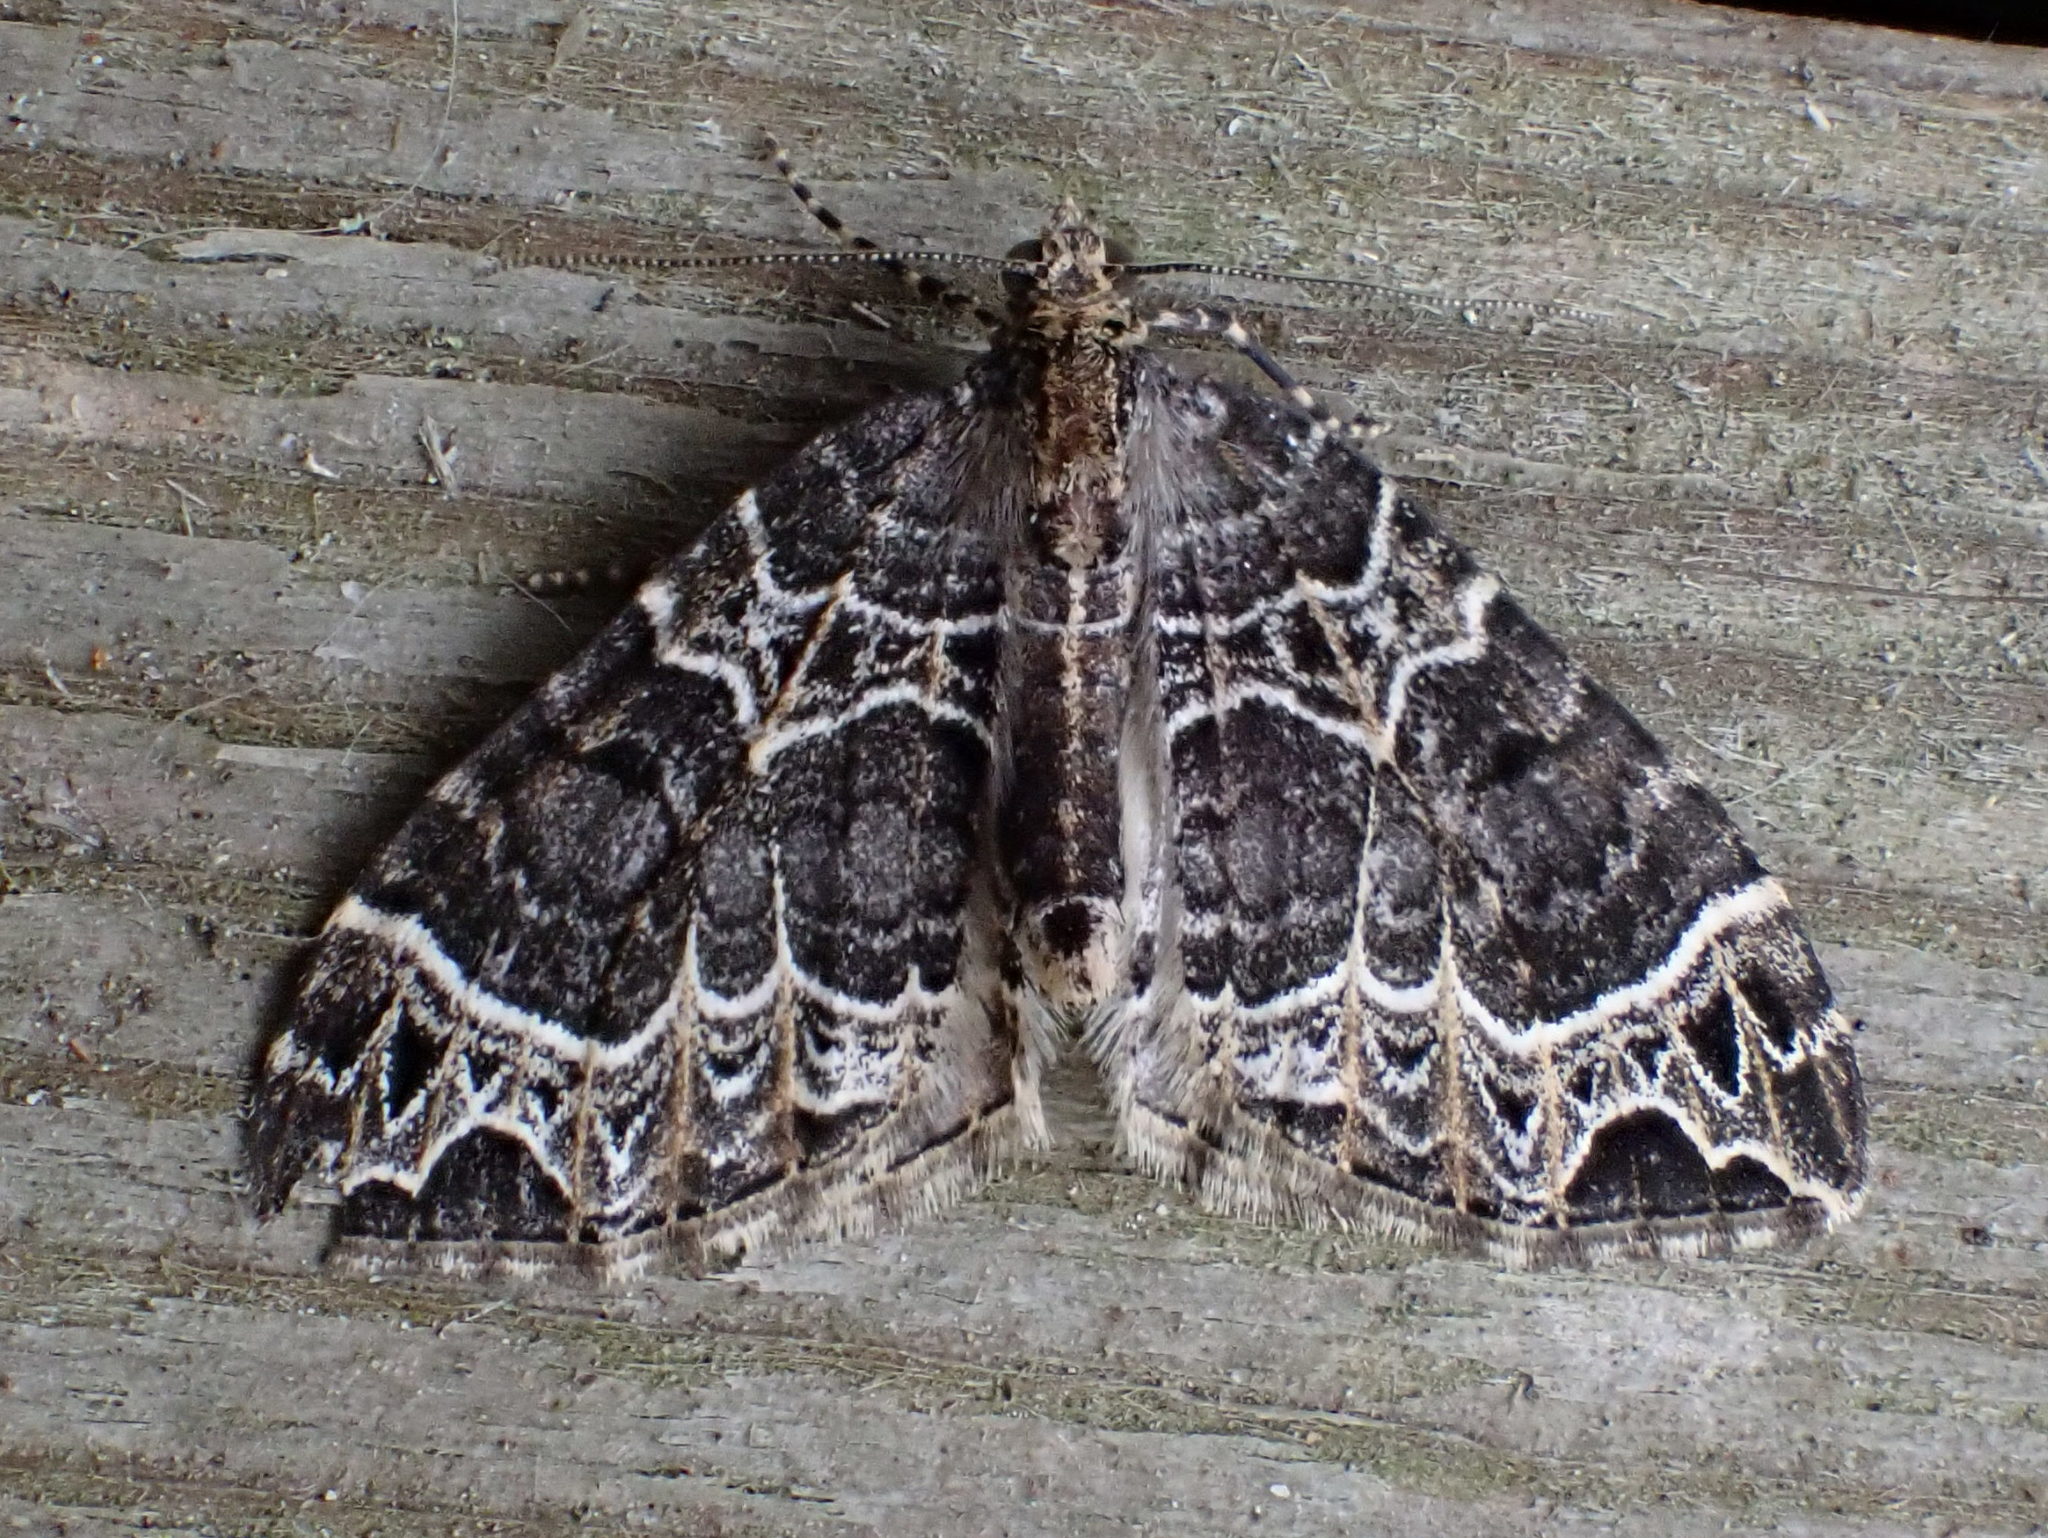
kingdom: Animalia
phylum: Arthropoda
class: Insecta
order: Lepidoptera
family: Geometridae
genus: Ecliptopera
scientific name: Ecliptopera silaceata
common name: Small phoenix
